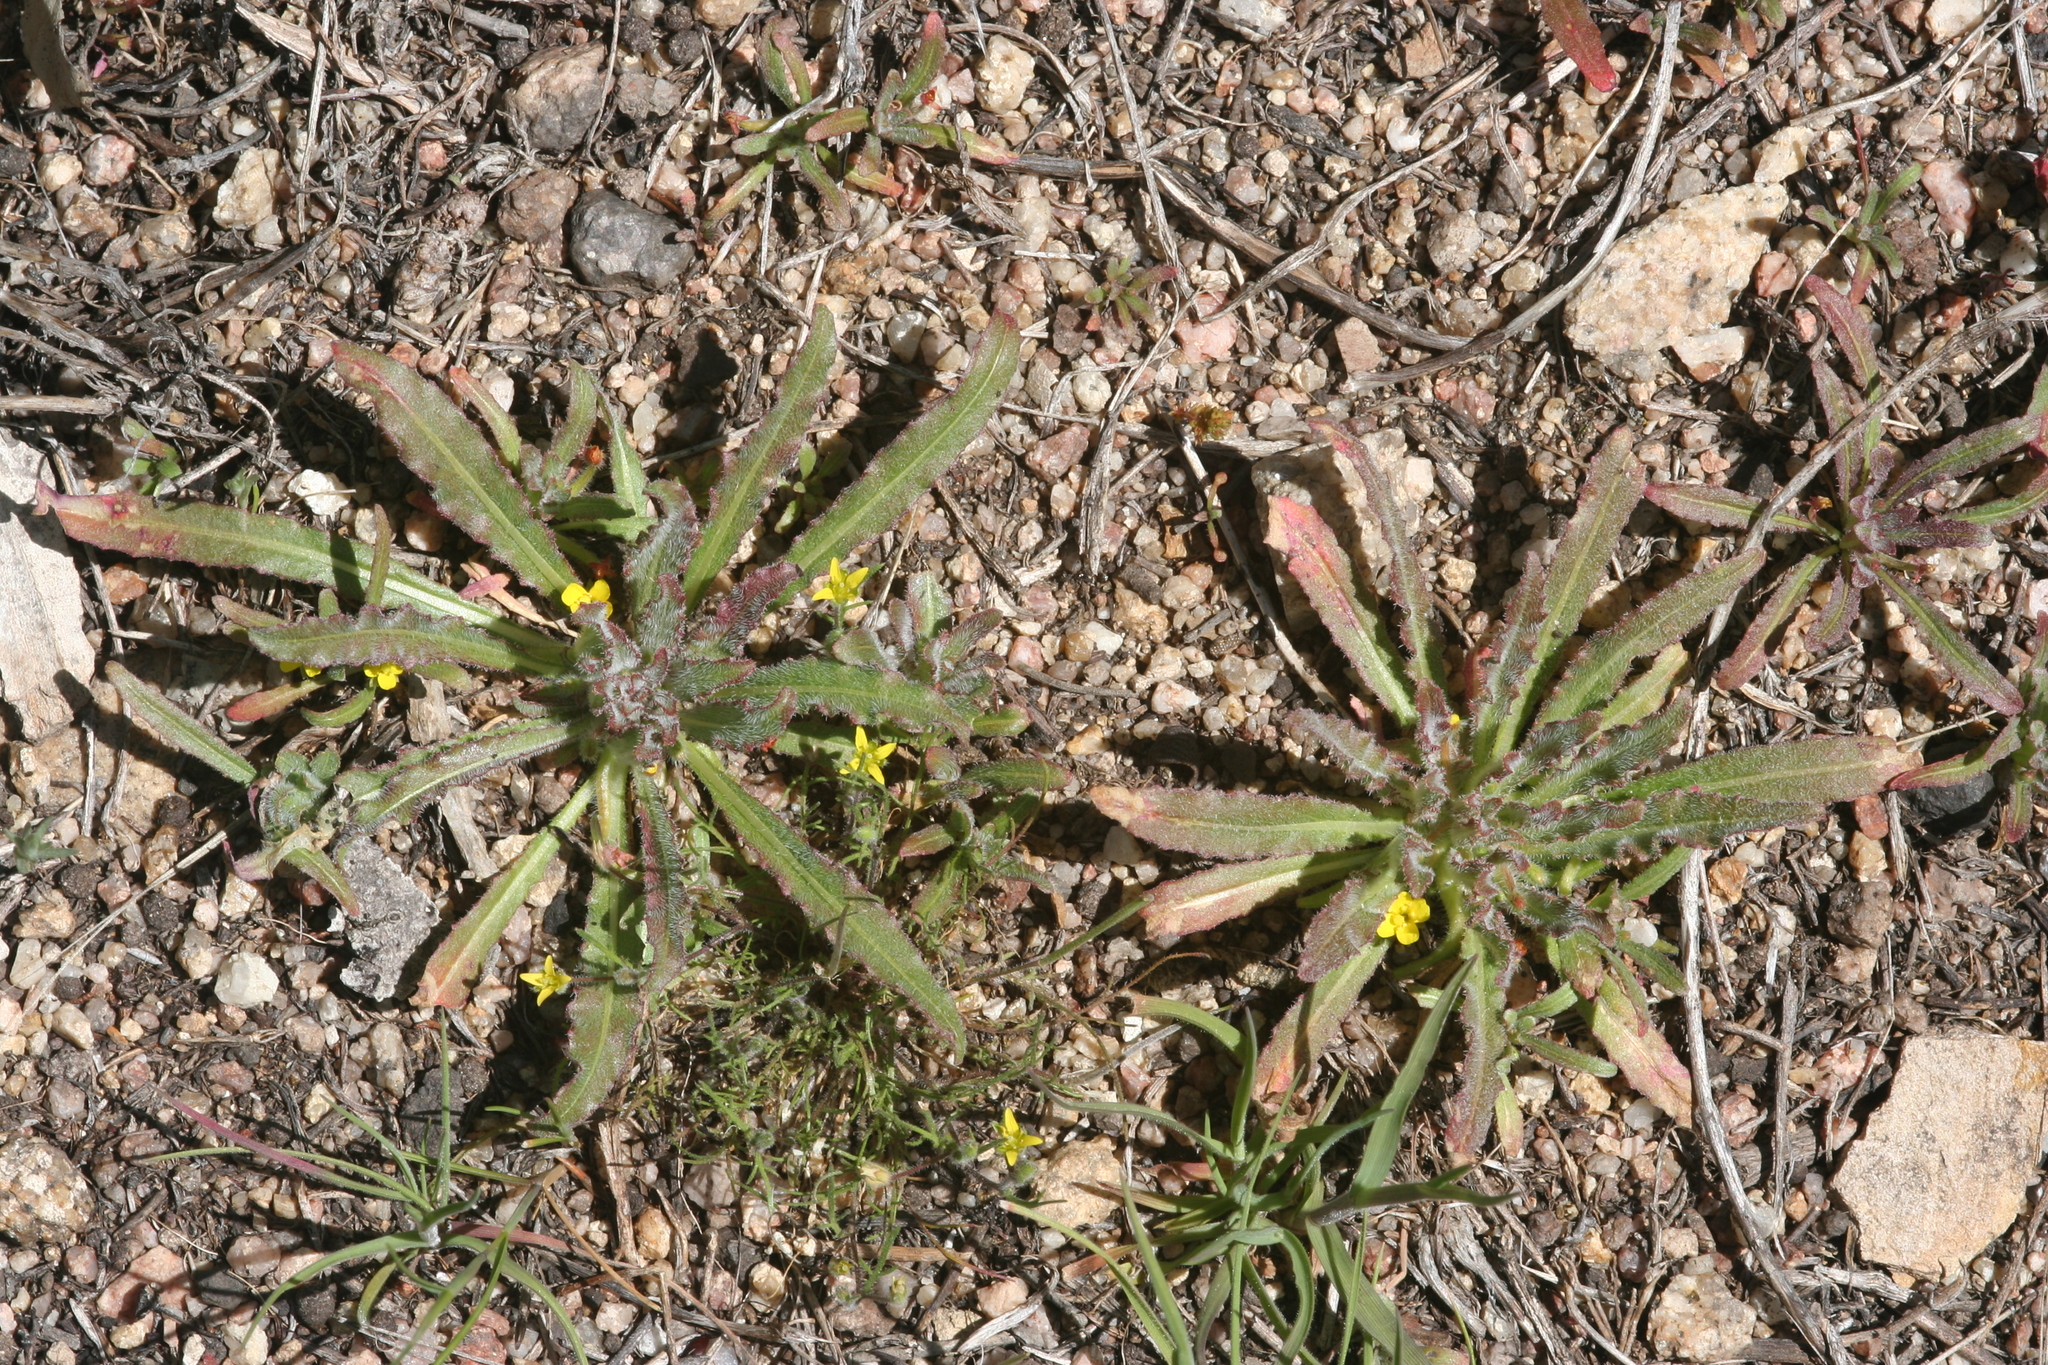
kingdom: Plantae
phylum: Tracheophyta
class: Magnoliopsida
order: Myrtales
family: Onagraceae
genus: Camissoniopsis
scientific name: Camissoniopsis micrantha
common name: Miniature suncup
